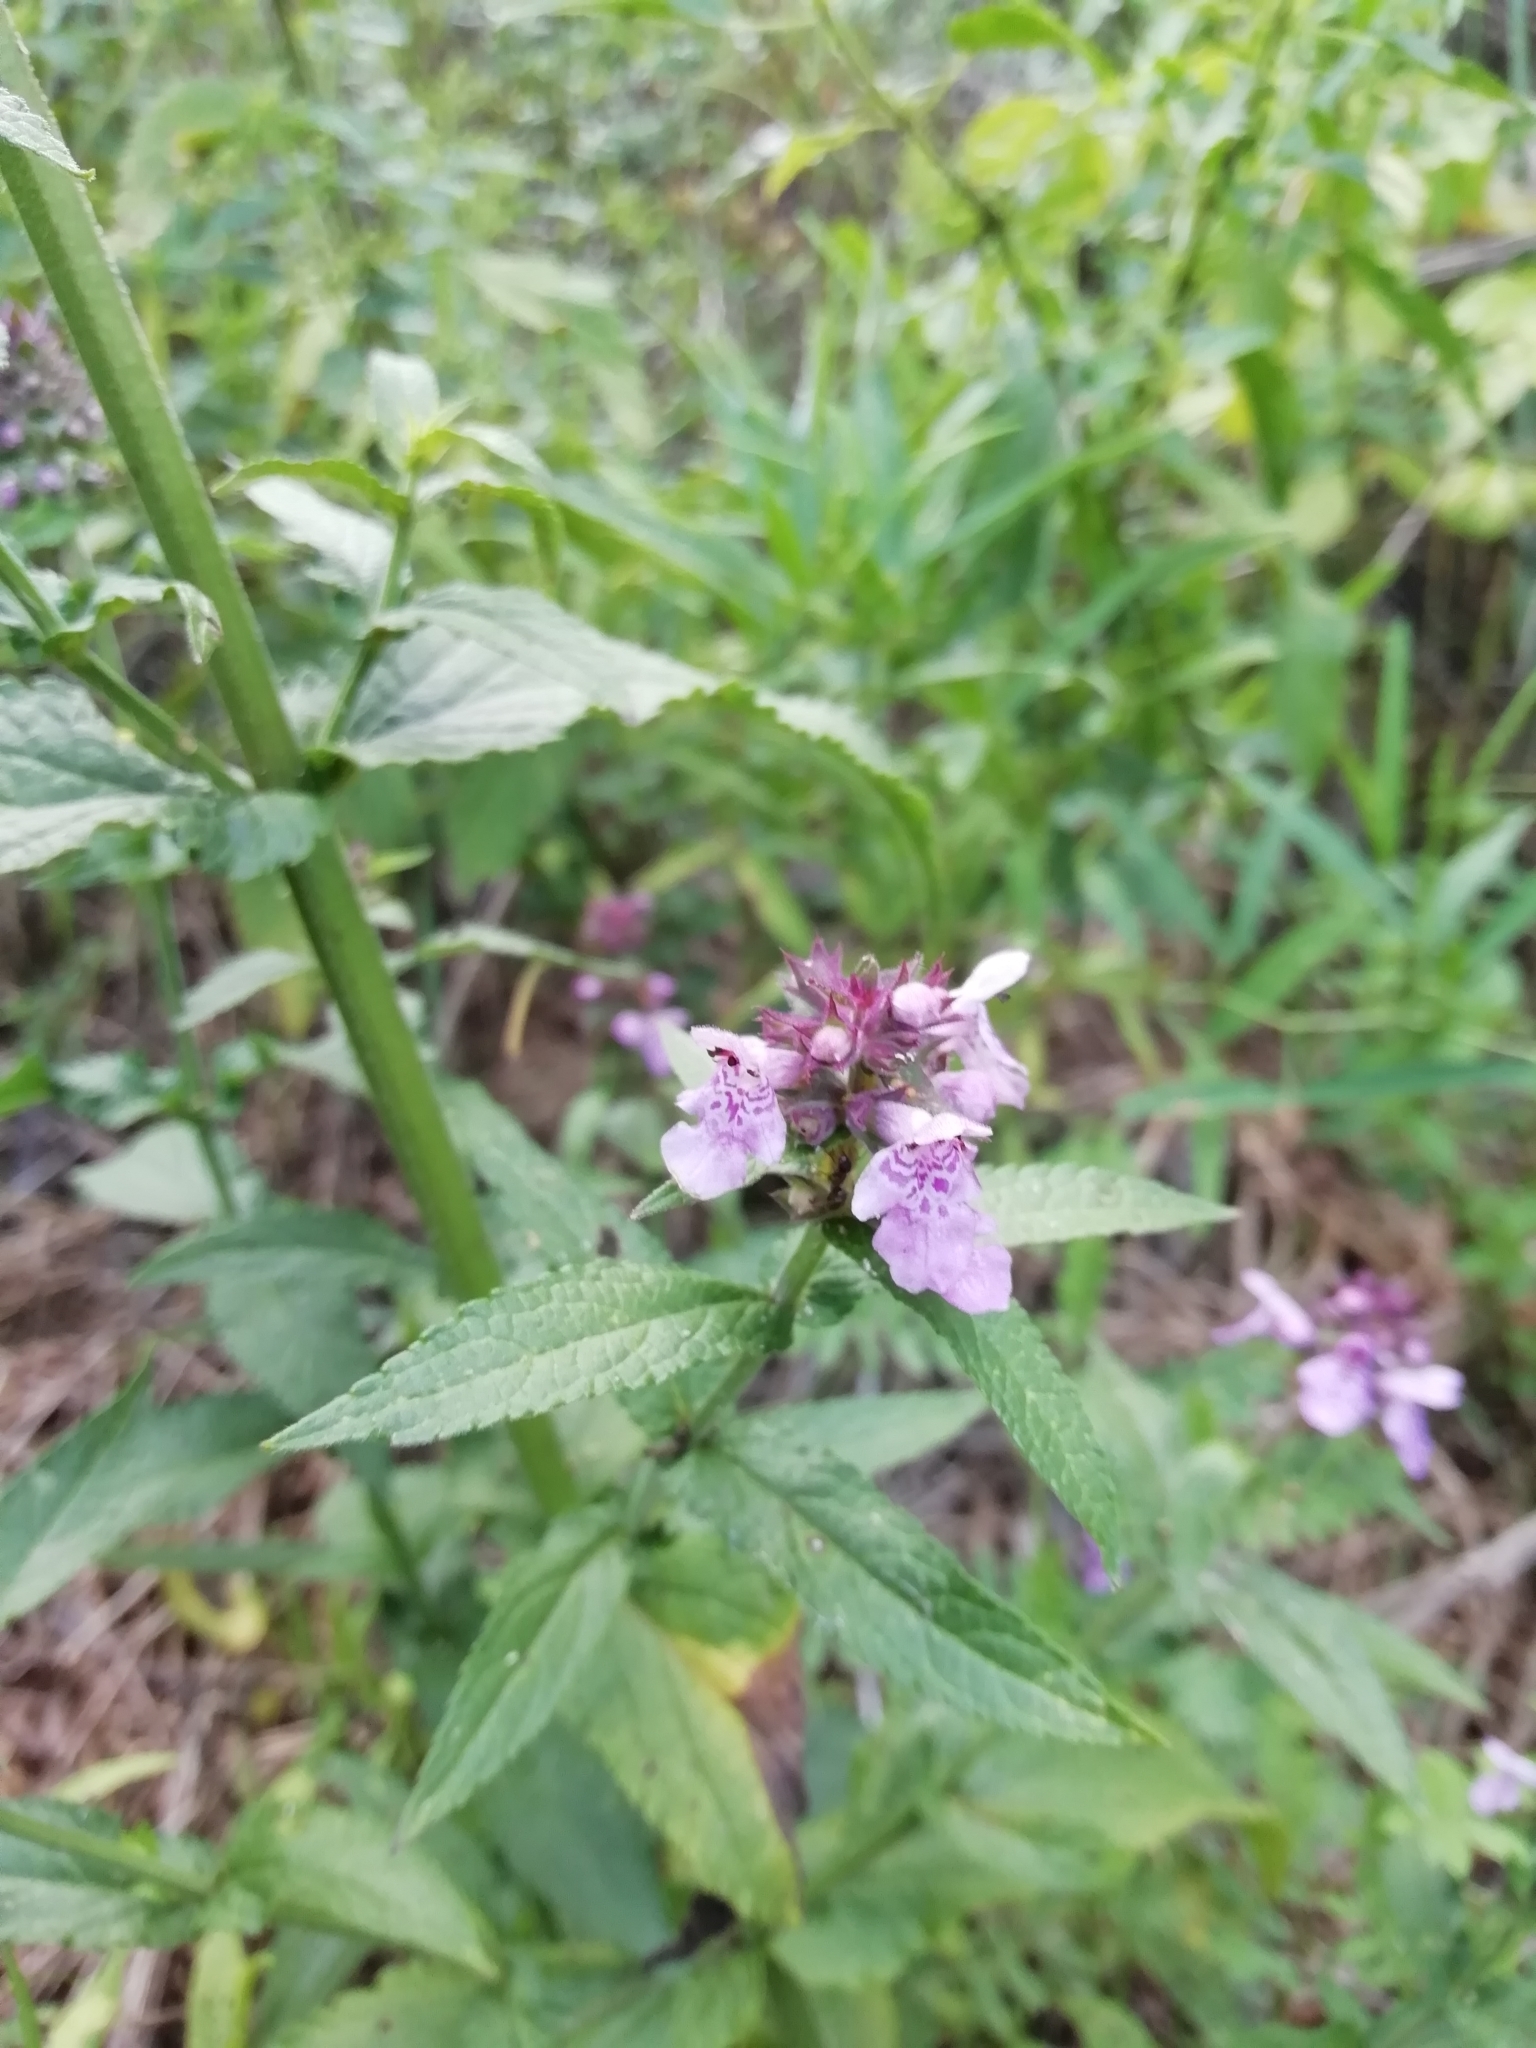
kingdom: Plantae
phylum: Tracheophyta
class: Magnoliopsida
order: Lamiales
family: Lamiaceae
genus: Stachys
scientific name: Stachys palustris
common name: Marsh woundwort
